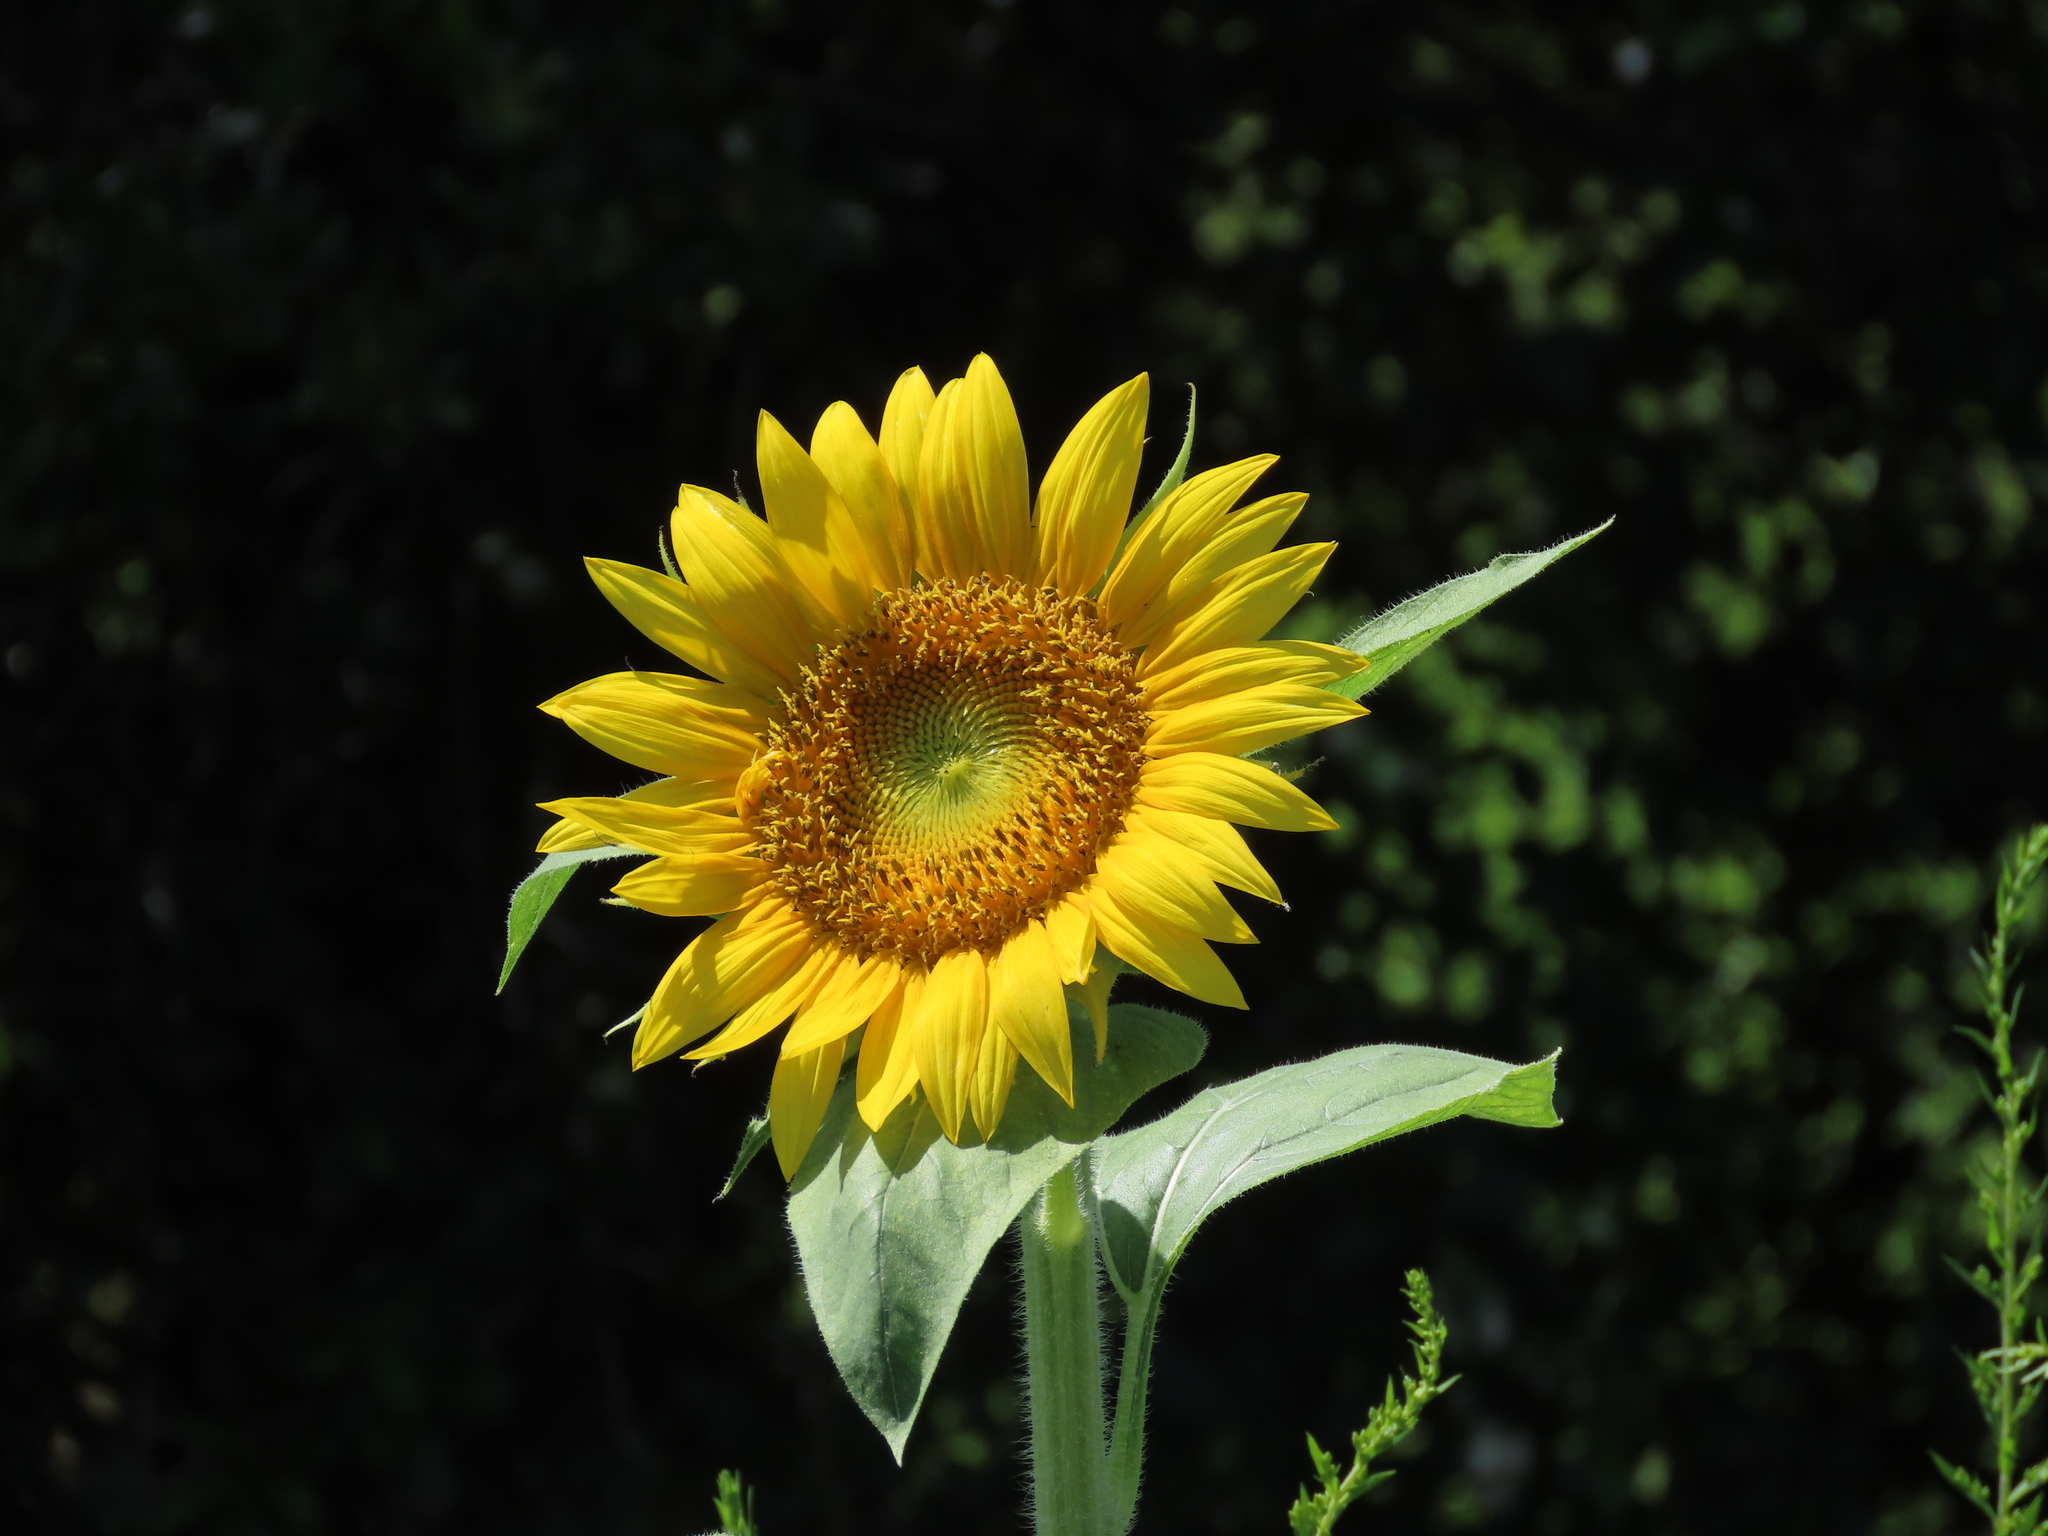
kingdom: Plantae
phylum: Tracheophyta
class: Magnoliopsida
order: Asterales
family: Asteraceae
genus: Helianthus
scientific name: Helianthus annuus
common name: Sunflower
